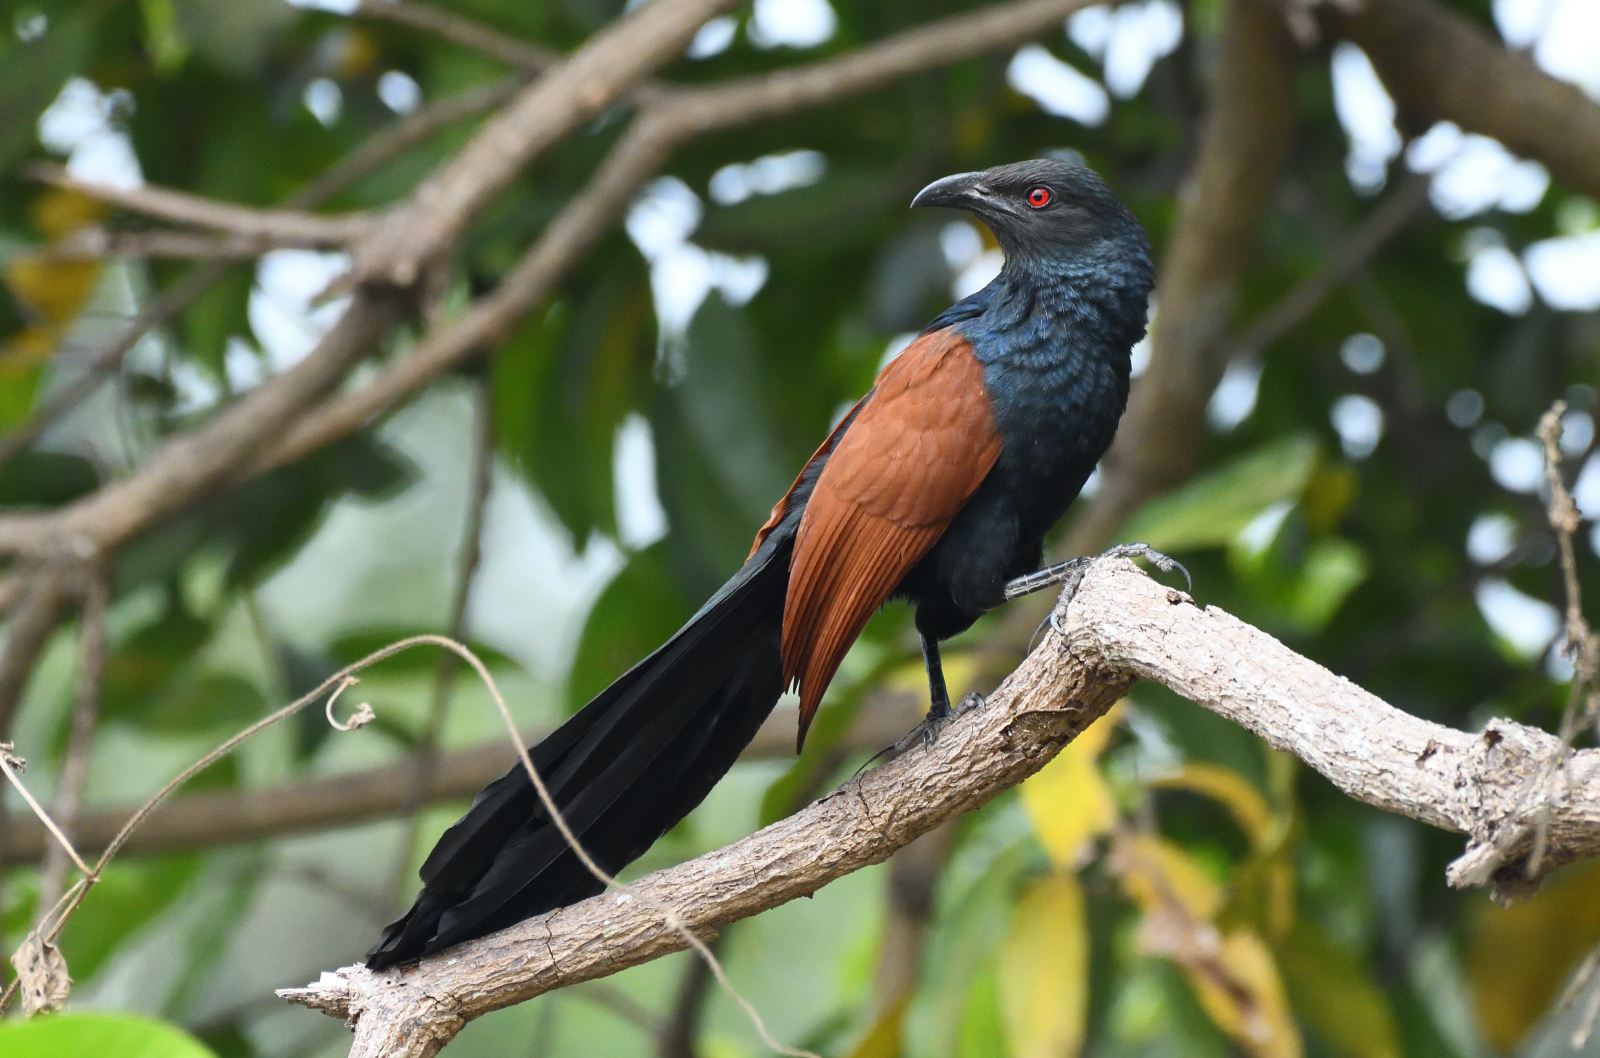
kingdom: Animalia
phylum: Chordata
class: Aves
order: Cuculiformes
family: Cuculidae
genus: Centropus
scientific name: Centropus sinensis
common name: Greater coucal
